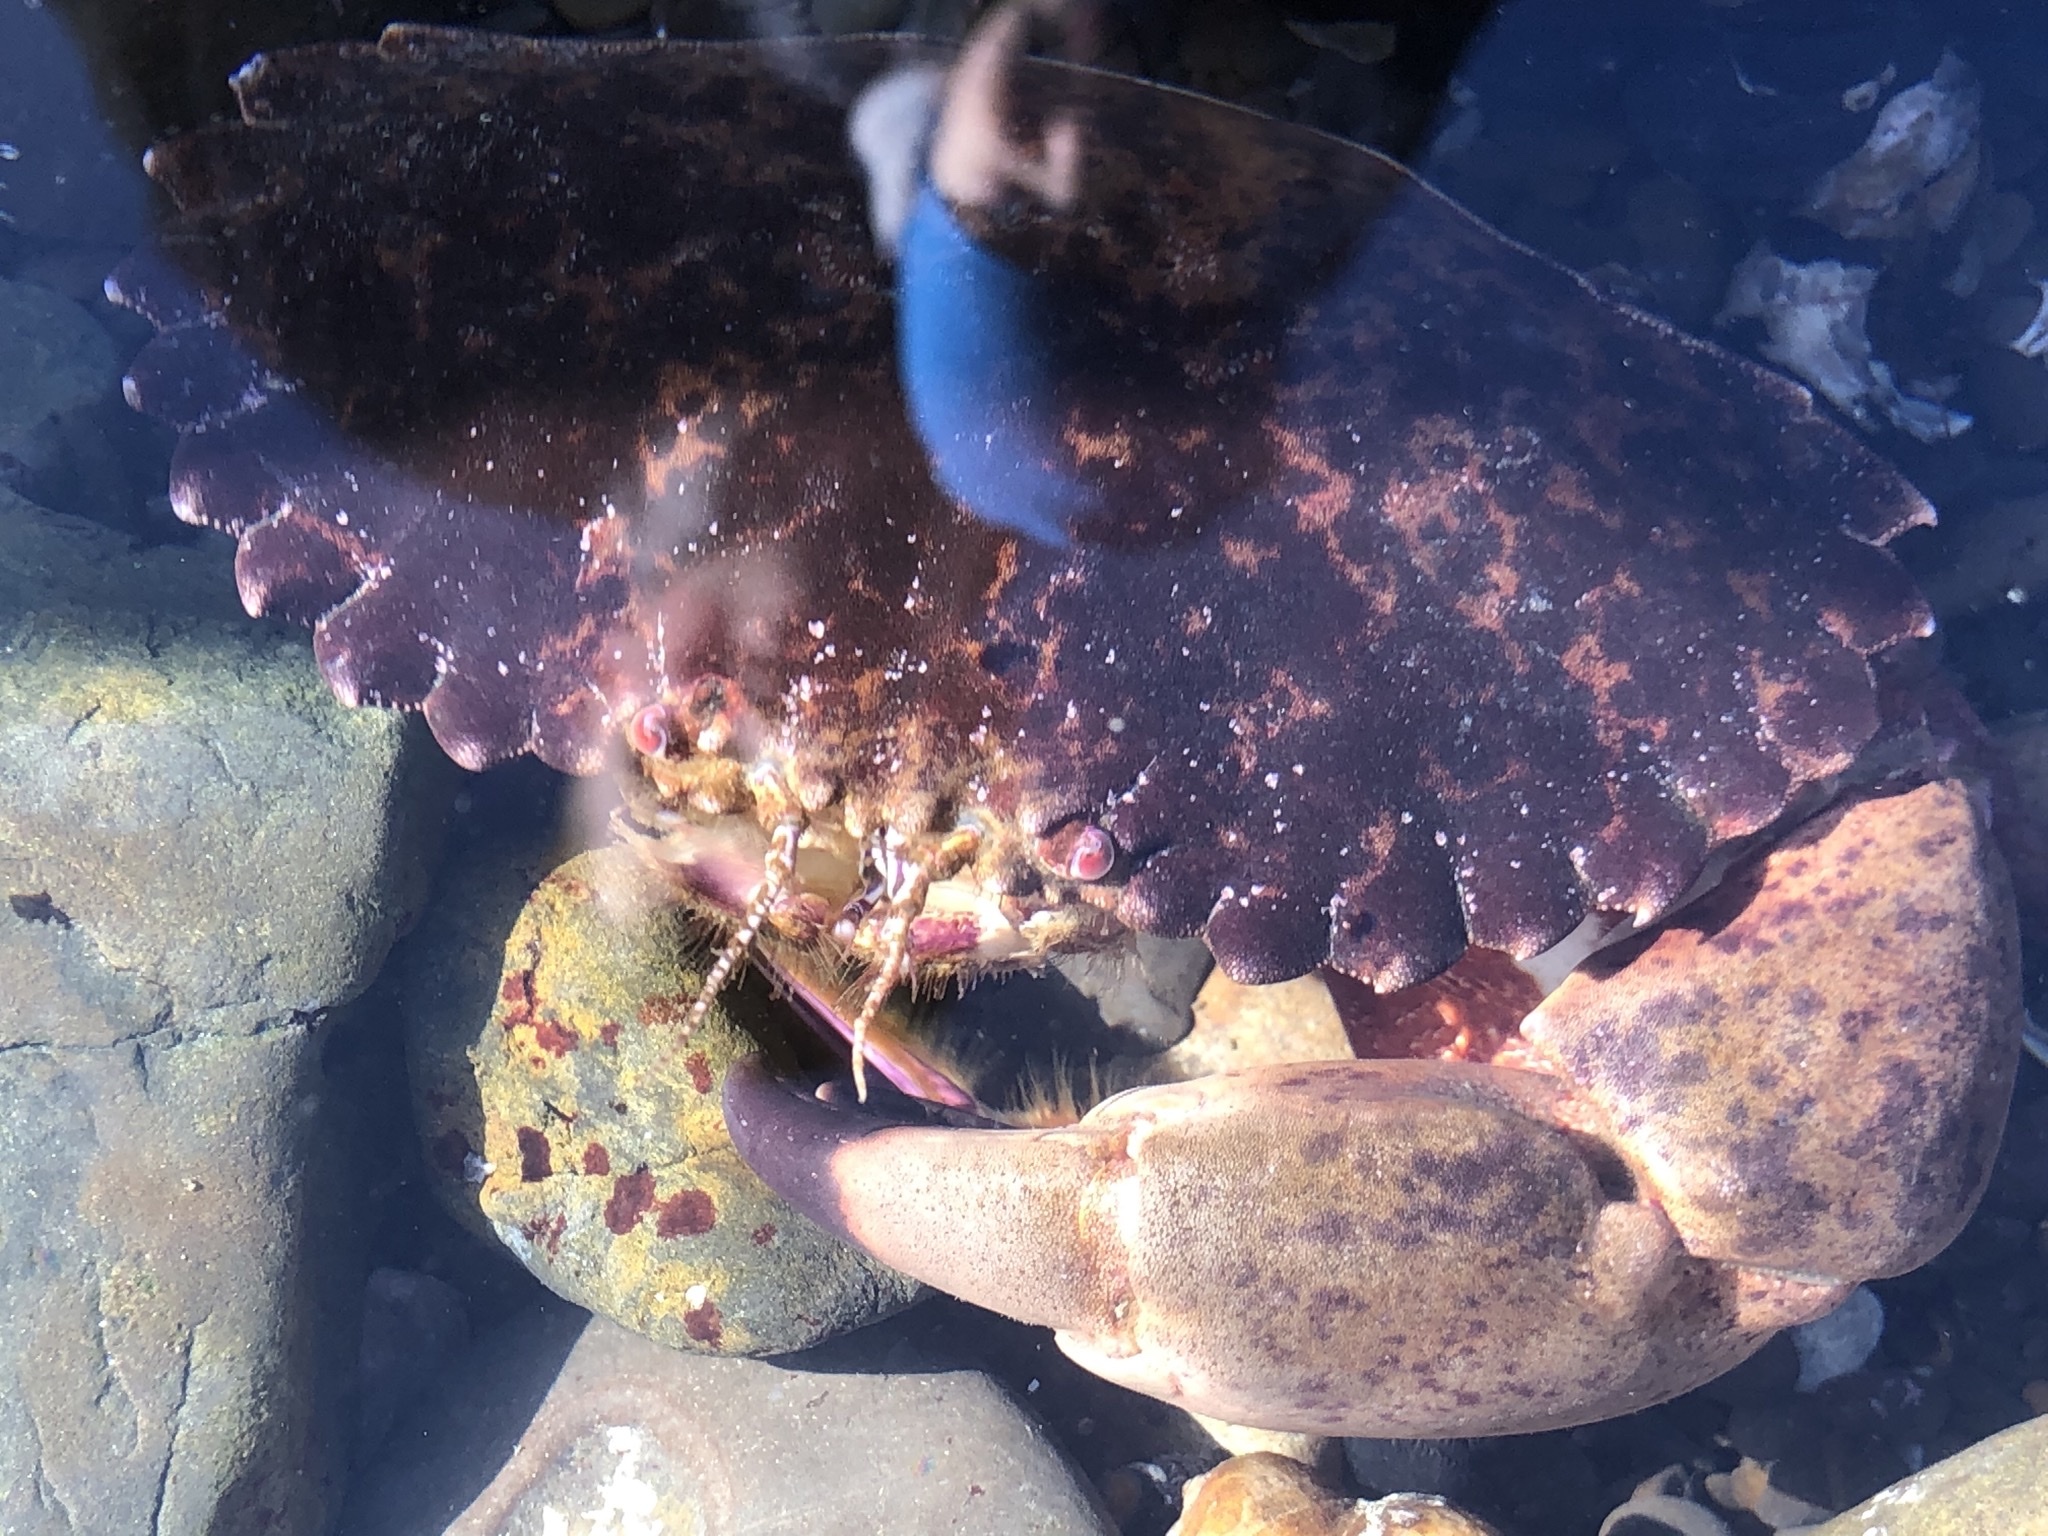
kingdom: Animalia
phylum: Arthropoda
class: Malacostraca
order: Decapoda
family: Cancridae
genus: Romaleon
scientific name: Romaleon antennarium
